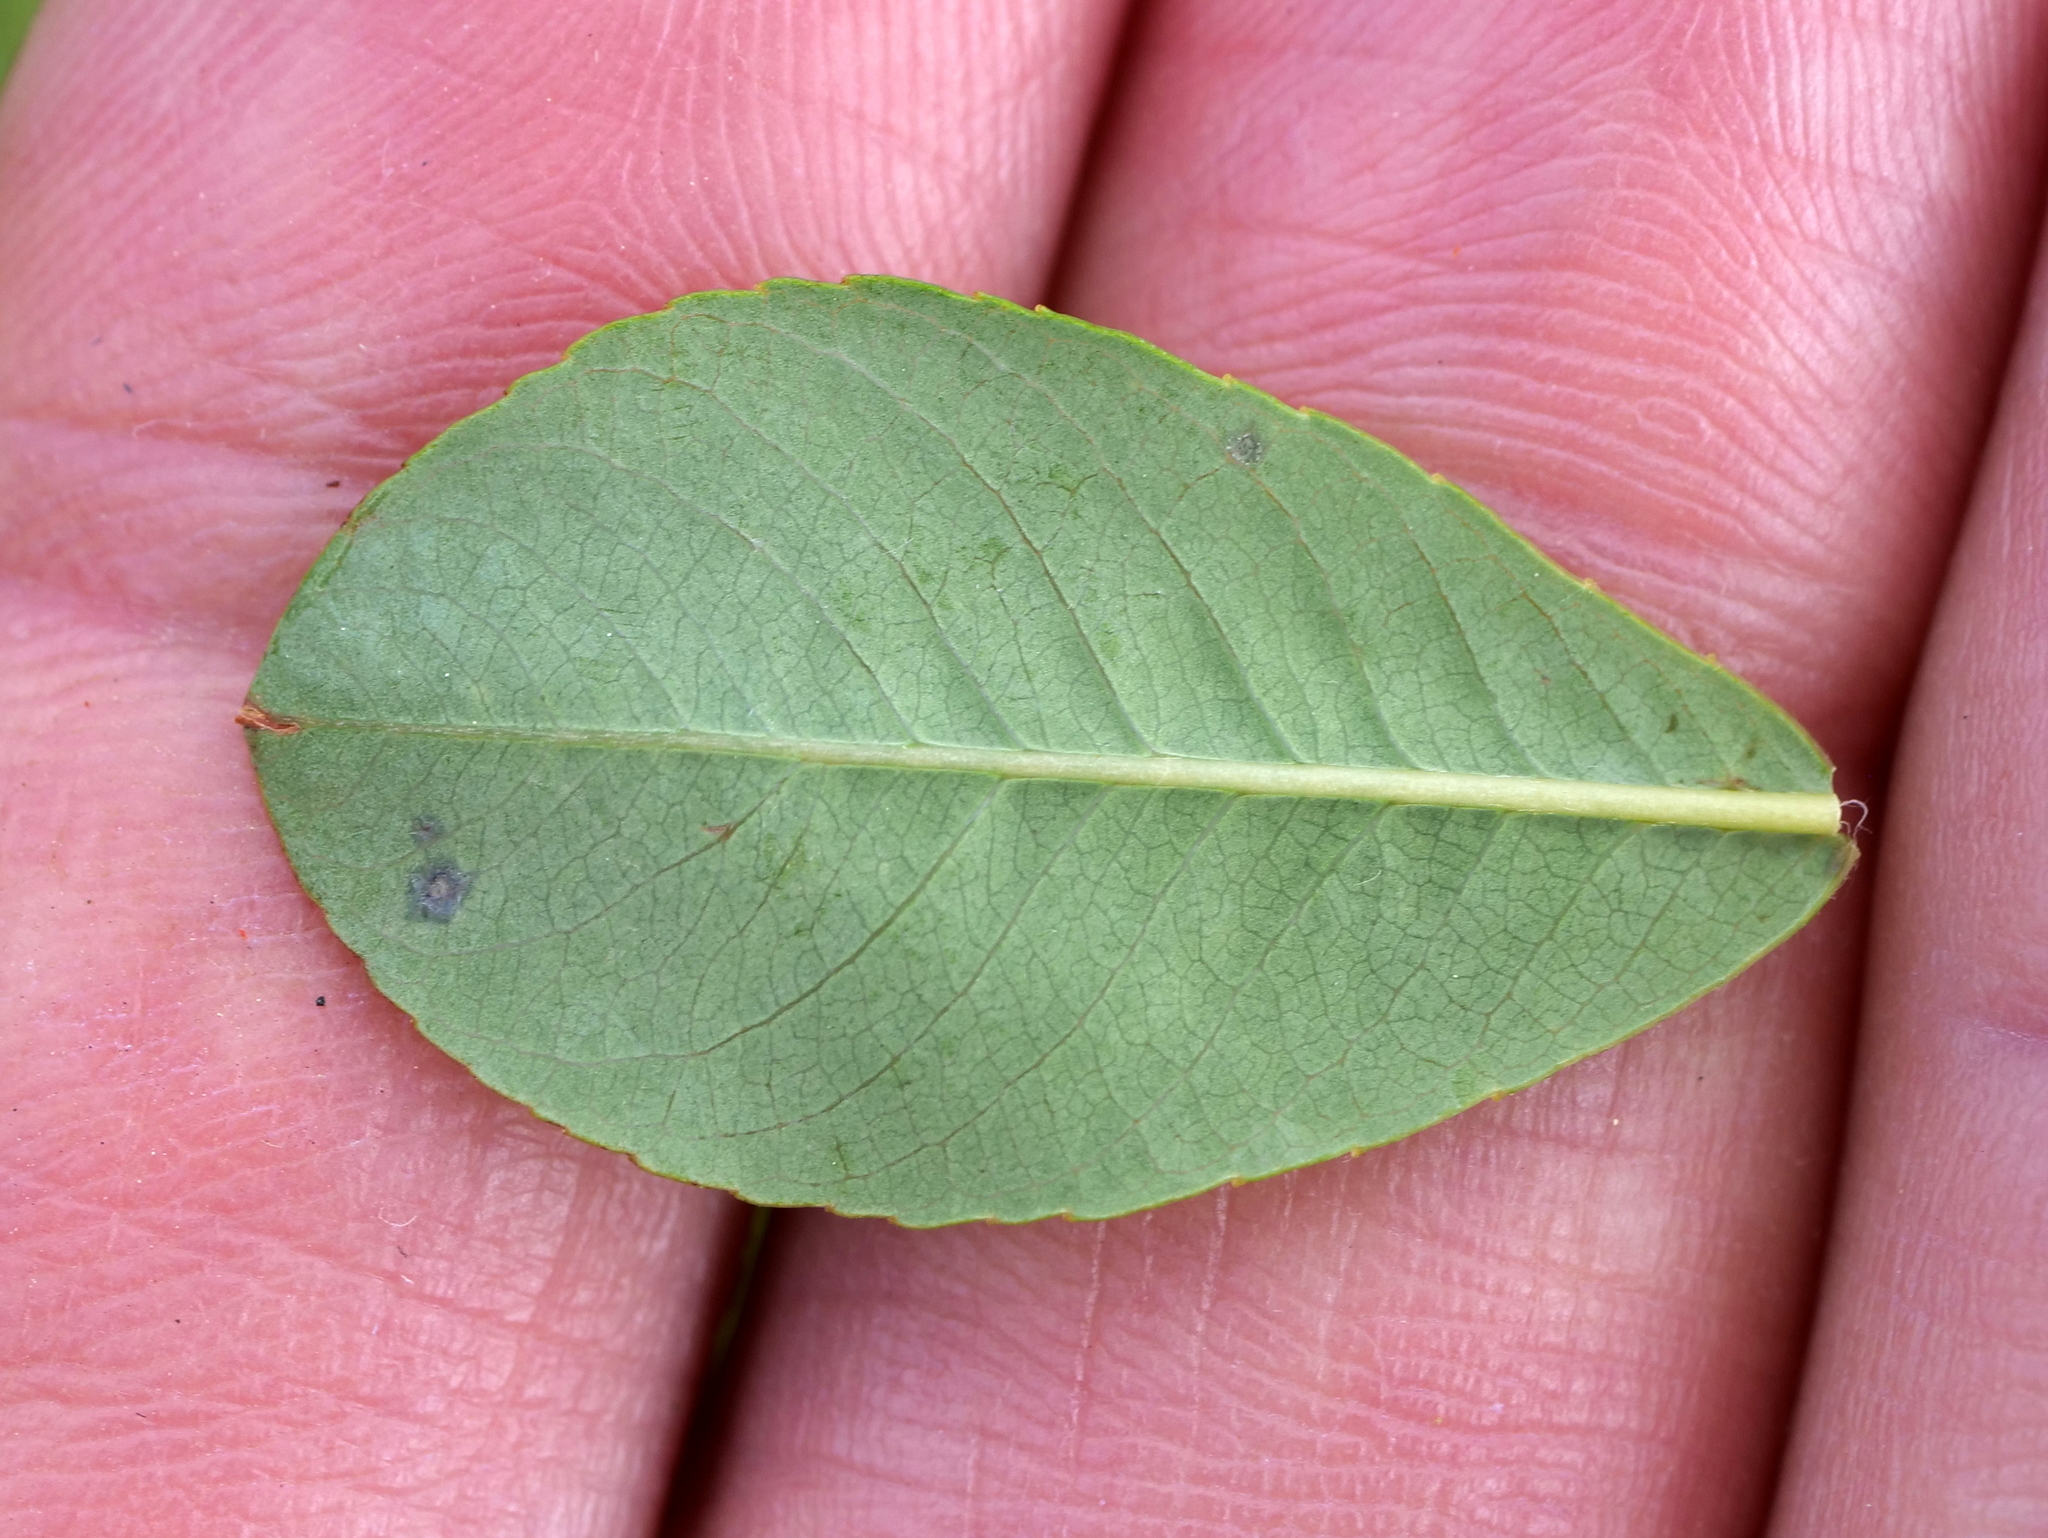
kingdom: Plantae
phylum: Tracheophyta
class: Magnoliopsida
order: Malpighiales
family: Salicaceae
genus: Salix
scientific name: Salix waldsteiniana
